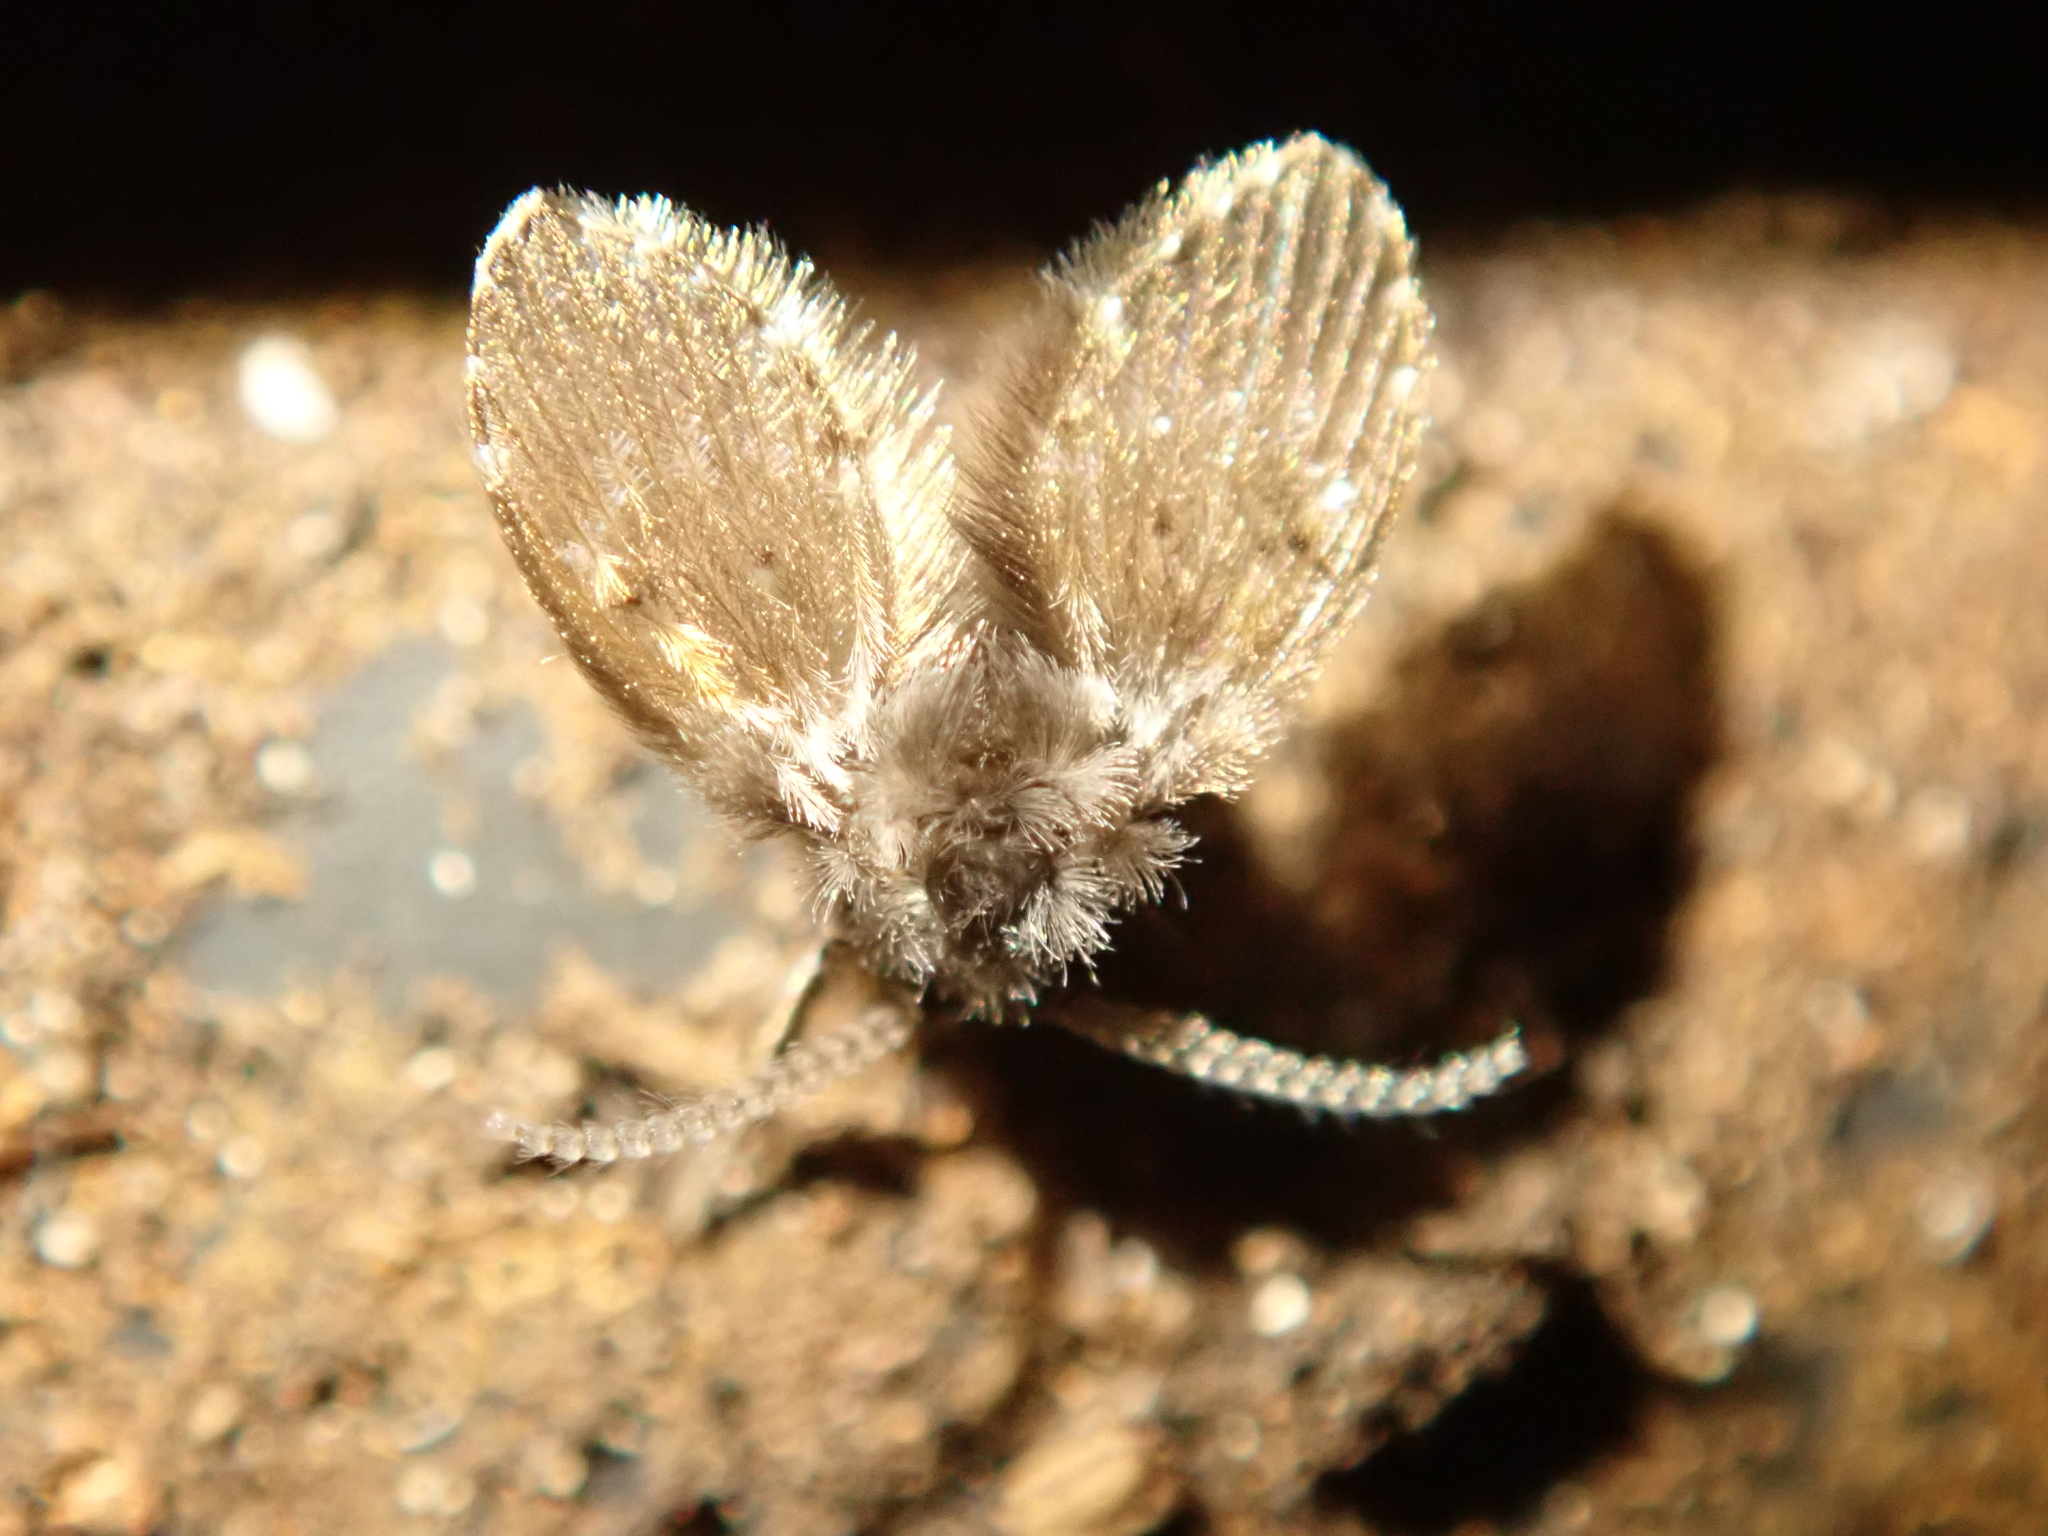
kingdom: Animalia
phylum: Arthropoda
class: Insecta
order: Diptera
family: Psychodidae
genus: Clogmia
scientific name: Clogmia albipunctatus
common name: White-spotted moth fly
